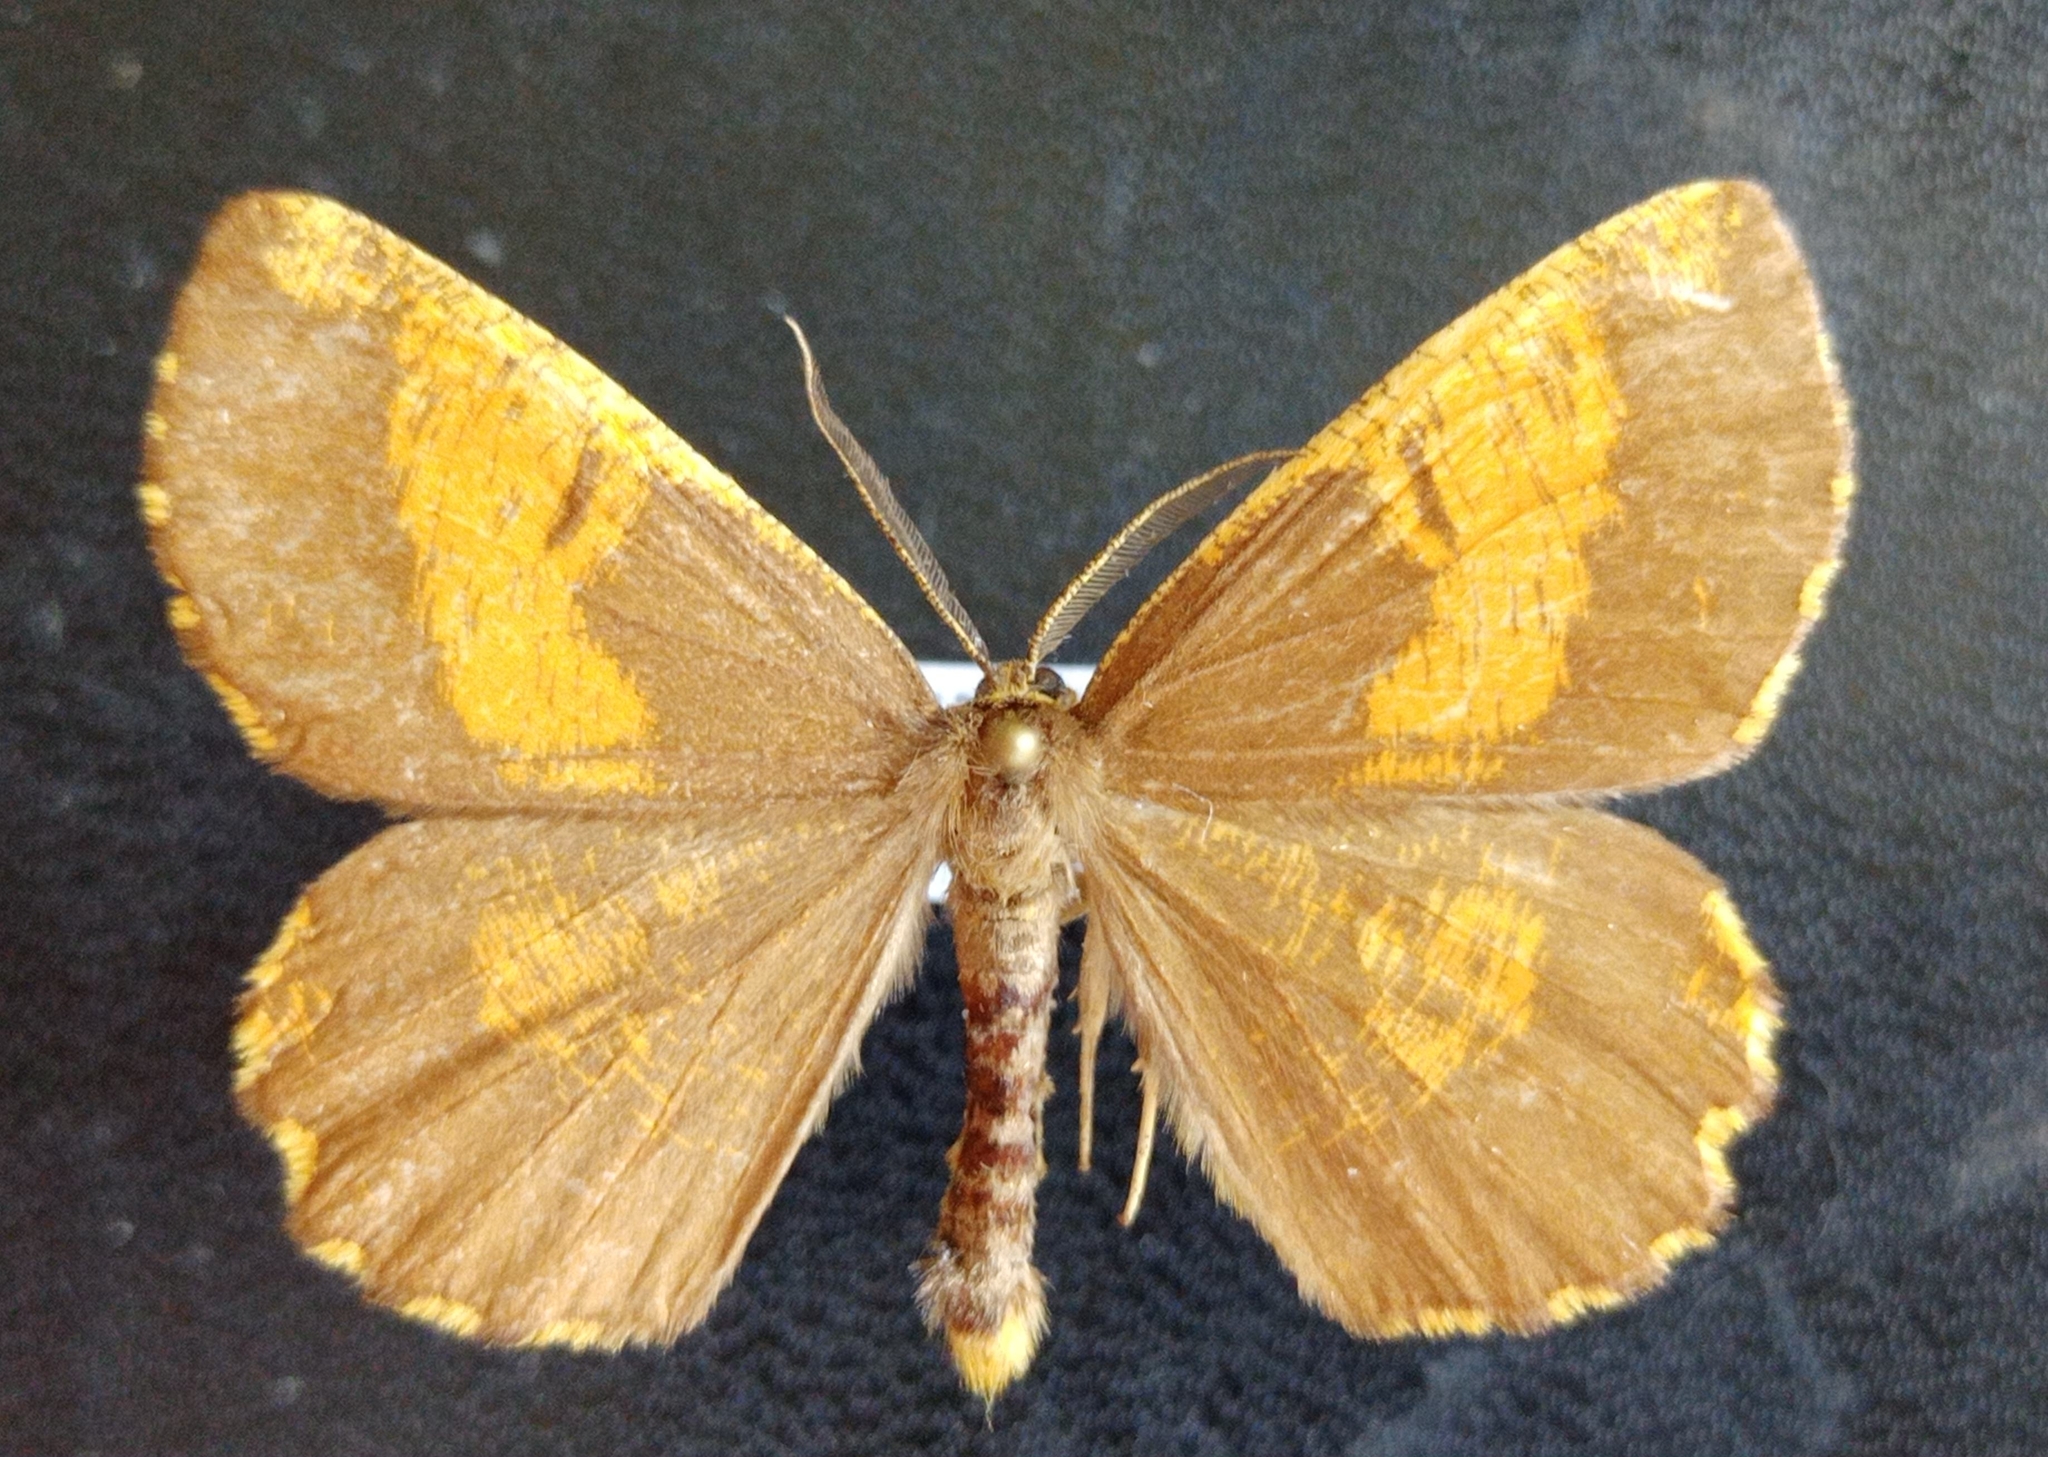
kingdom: Animalia
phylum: Arthropoda
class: Insecta
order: Lepidoptera
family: Geometridae
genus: Angerona
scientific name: Angerona prunaria
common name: Orange moth
